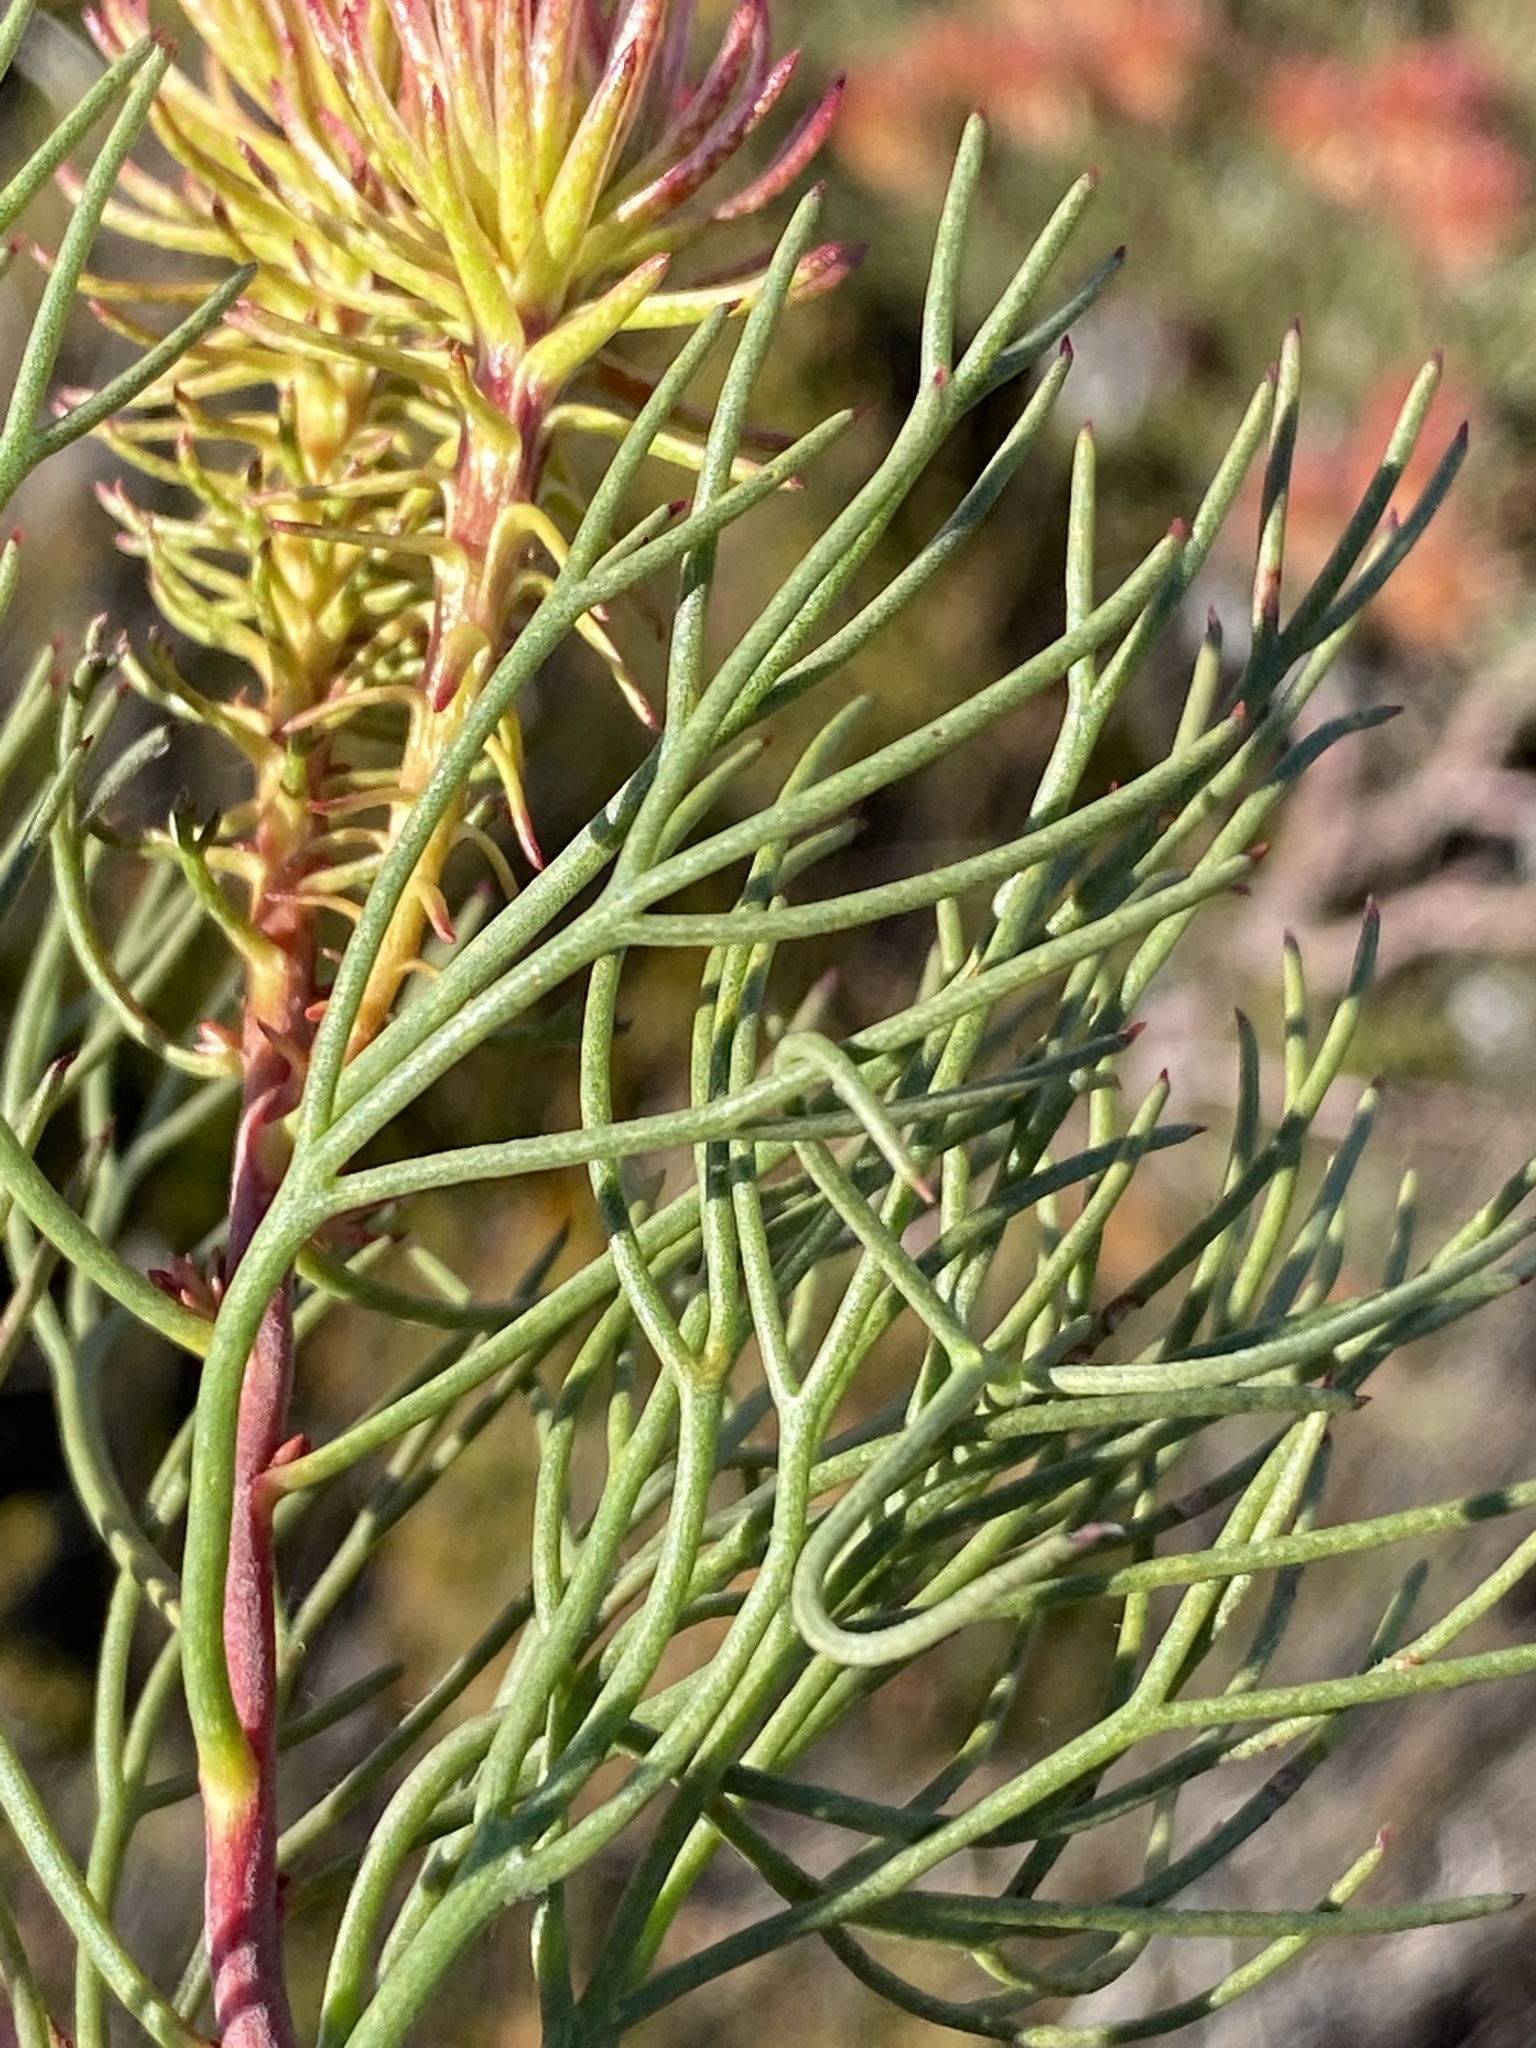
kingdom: Plantae
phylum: Tracheophyta
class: Magnoliopsida
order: Proteales
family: Proteaceae
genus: Serruria
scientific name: Serruria phylicoides
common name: Bearded spiderhead
